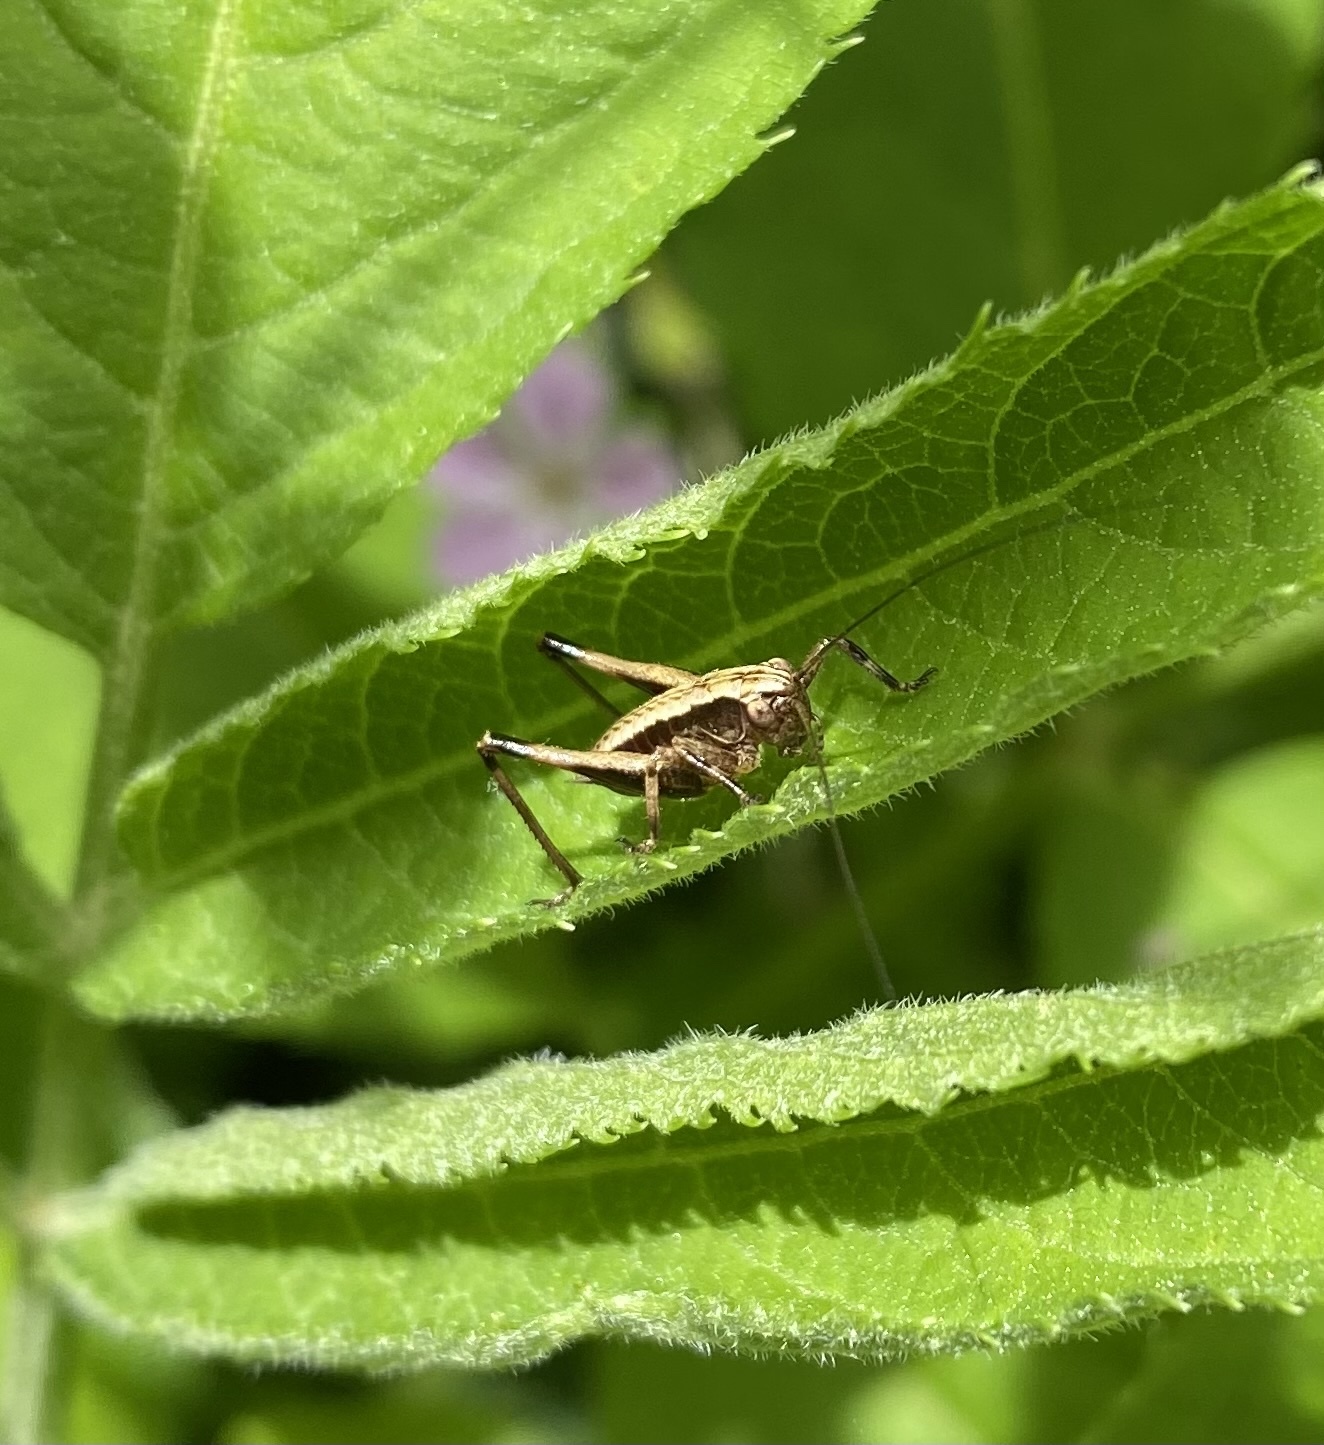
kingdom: Animalia
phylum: Arthropoda
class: Insecta
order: Orthoptera
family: Tettigoniidae
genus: Pholidoptera
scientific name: Pholidoptera griseoaptera
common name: Dark bush-cricket
